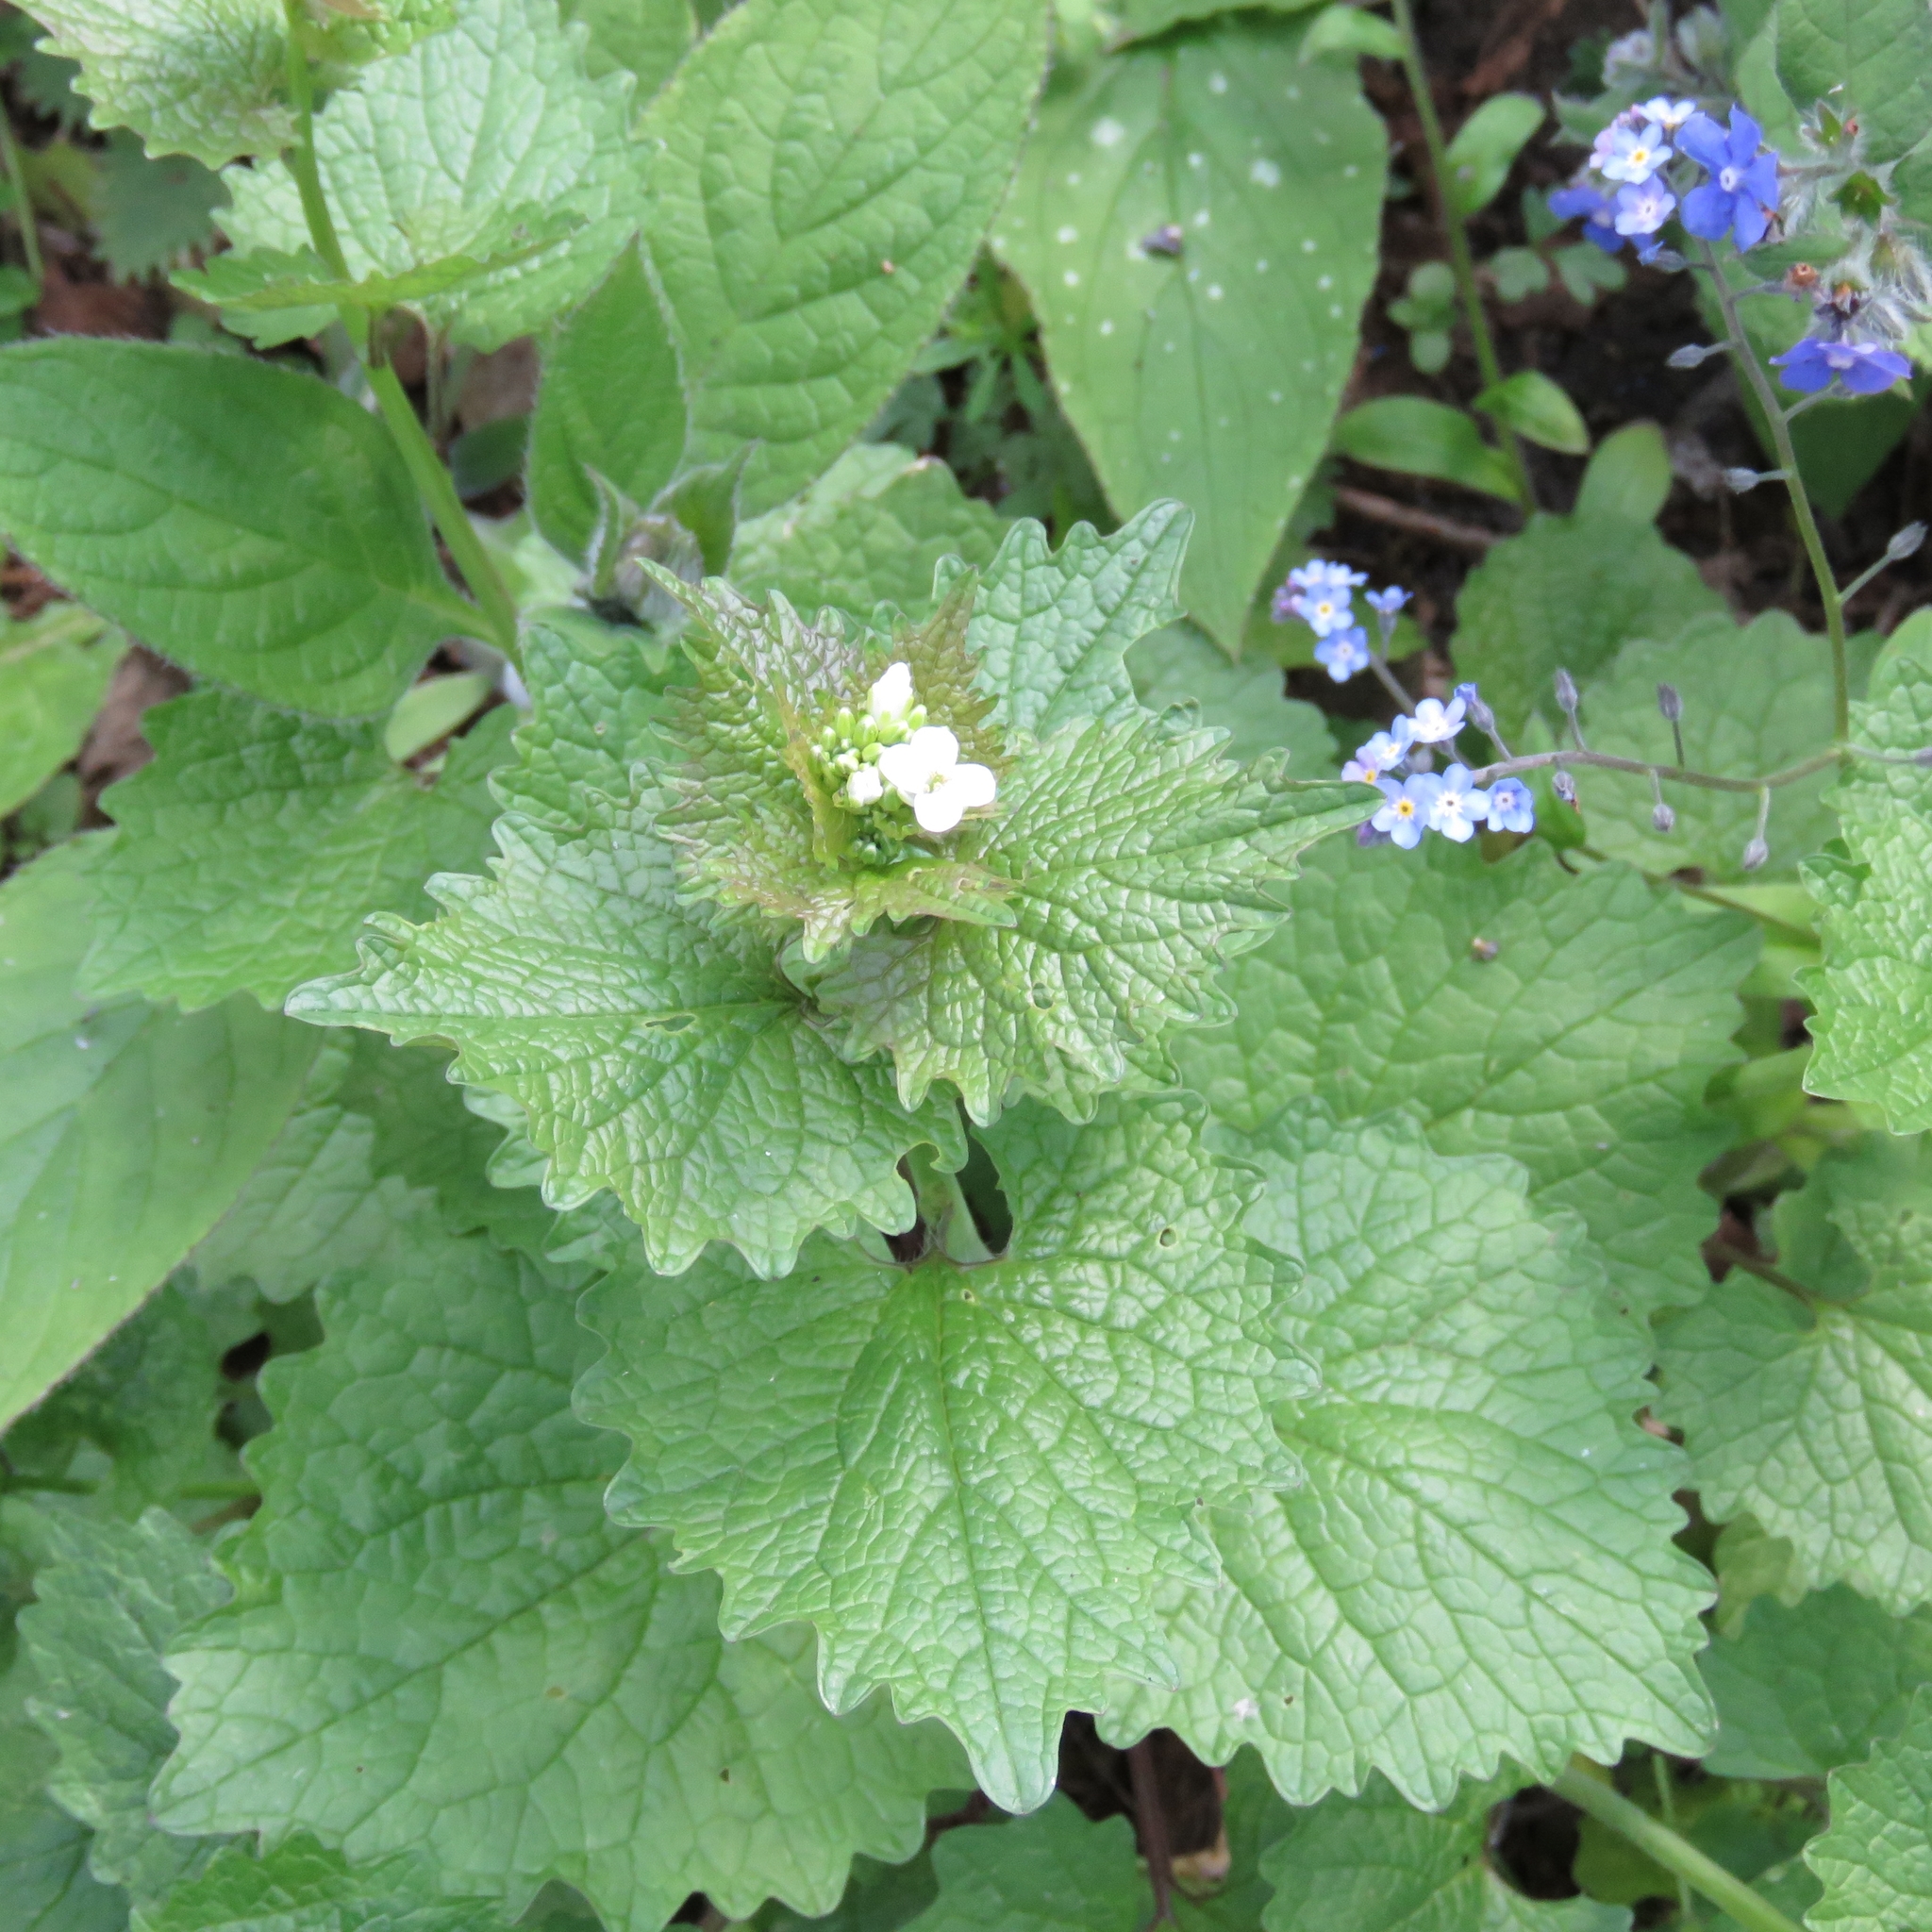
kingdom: Plantae
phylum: Tracheophyta
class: Magnoliopsida
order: Brassicales
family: Brassicaceae
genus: Alliaria
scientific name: Alliaria petiolata
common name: Garlic mustard
